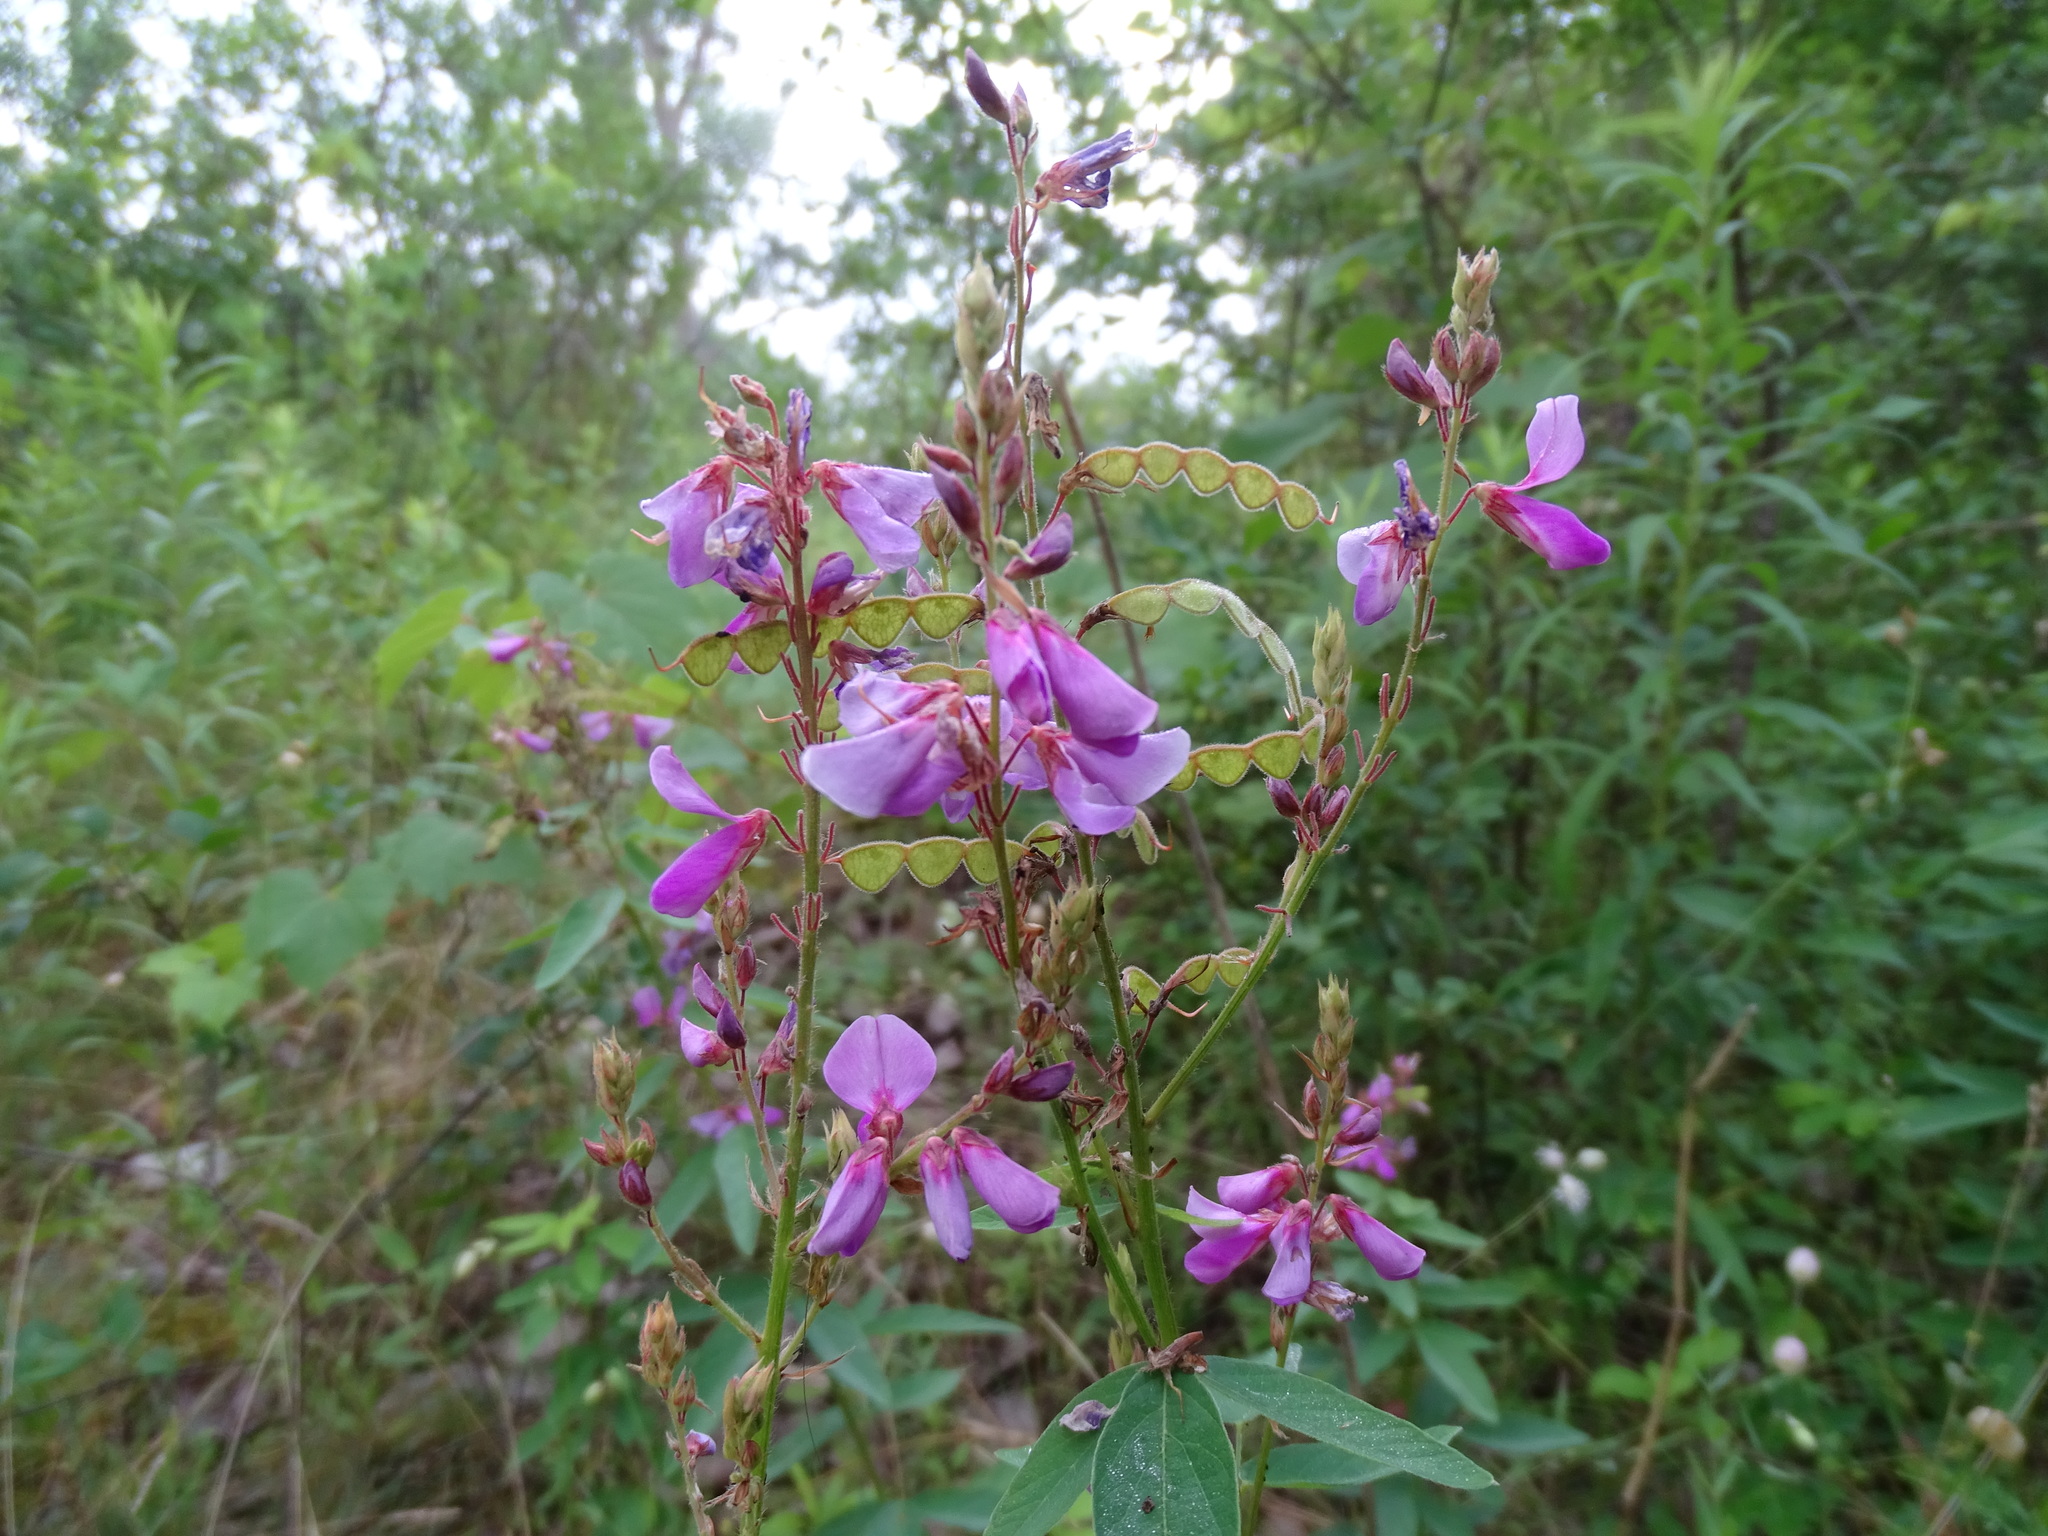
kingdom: Plantae
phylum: Tracheophyta
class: Magnoliopsida
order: Fabales
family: Fabaceae
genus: Desmodium
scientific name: Desmodium canadense
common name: Canada tick-trefoil
